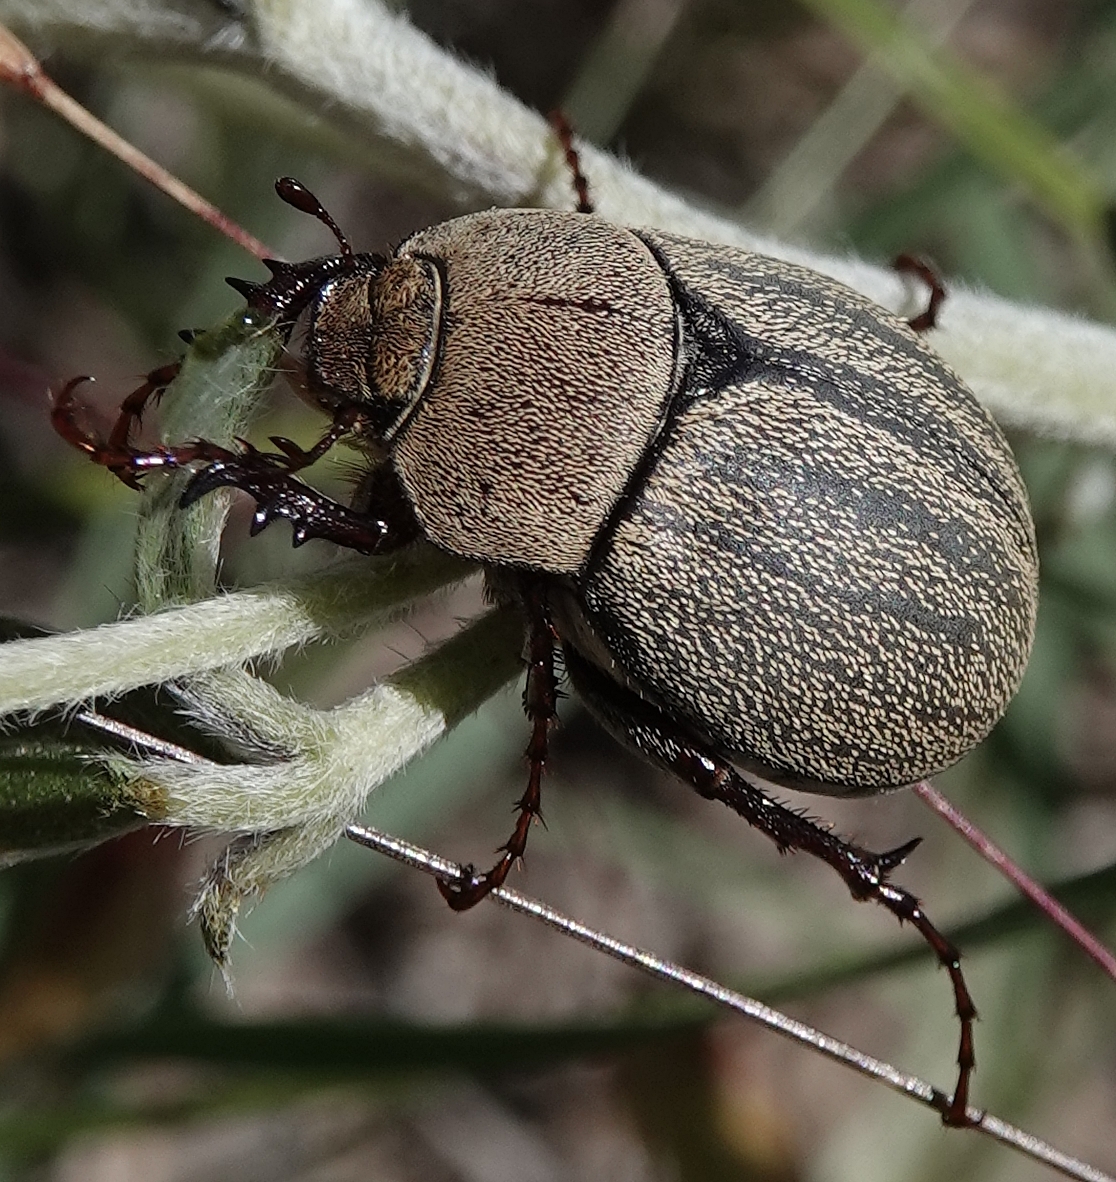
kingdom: Animalia
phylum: Arthropoda
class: Insecta
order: Coleoptera
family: Scarabaeidae
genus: Phyllophaga
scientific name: Phyllophaga lanceolata
